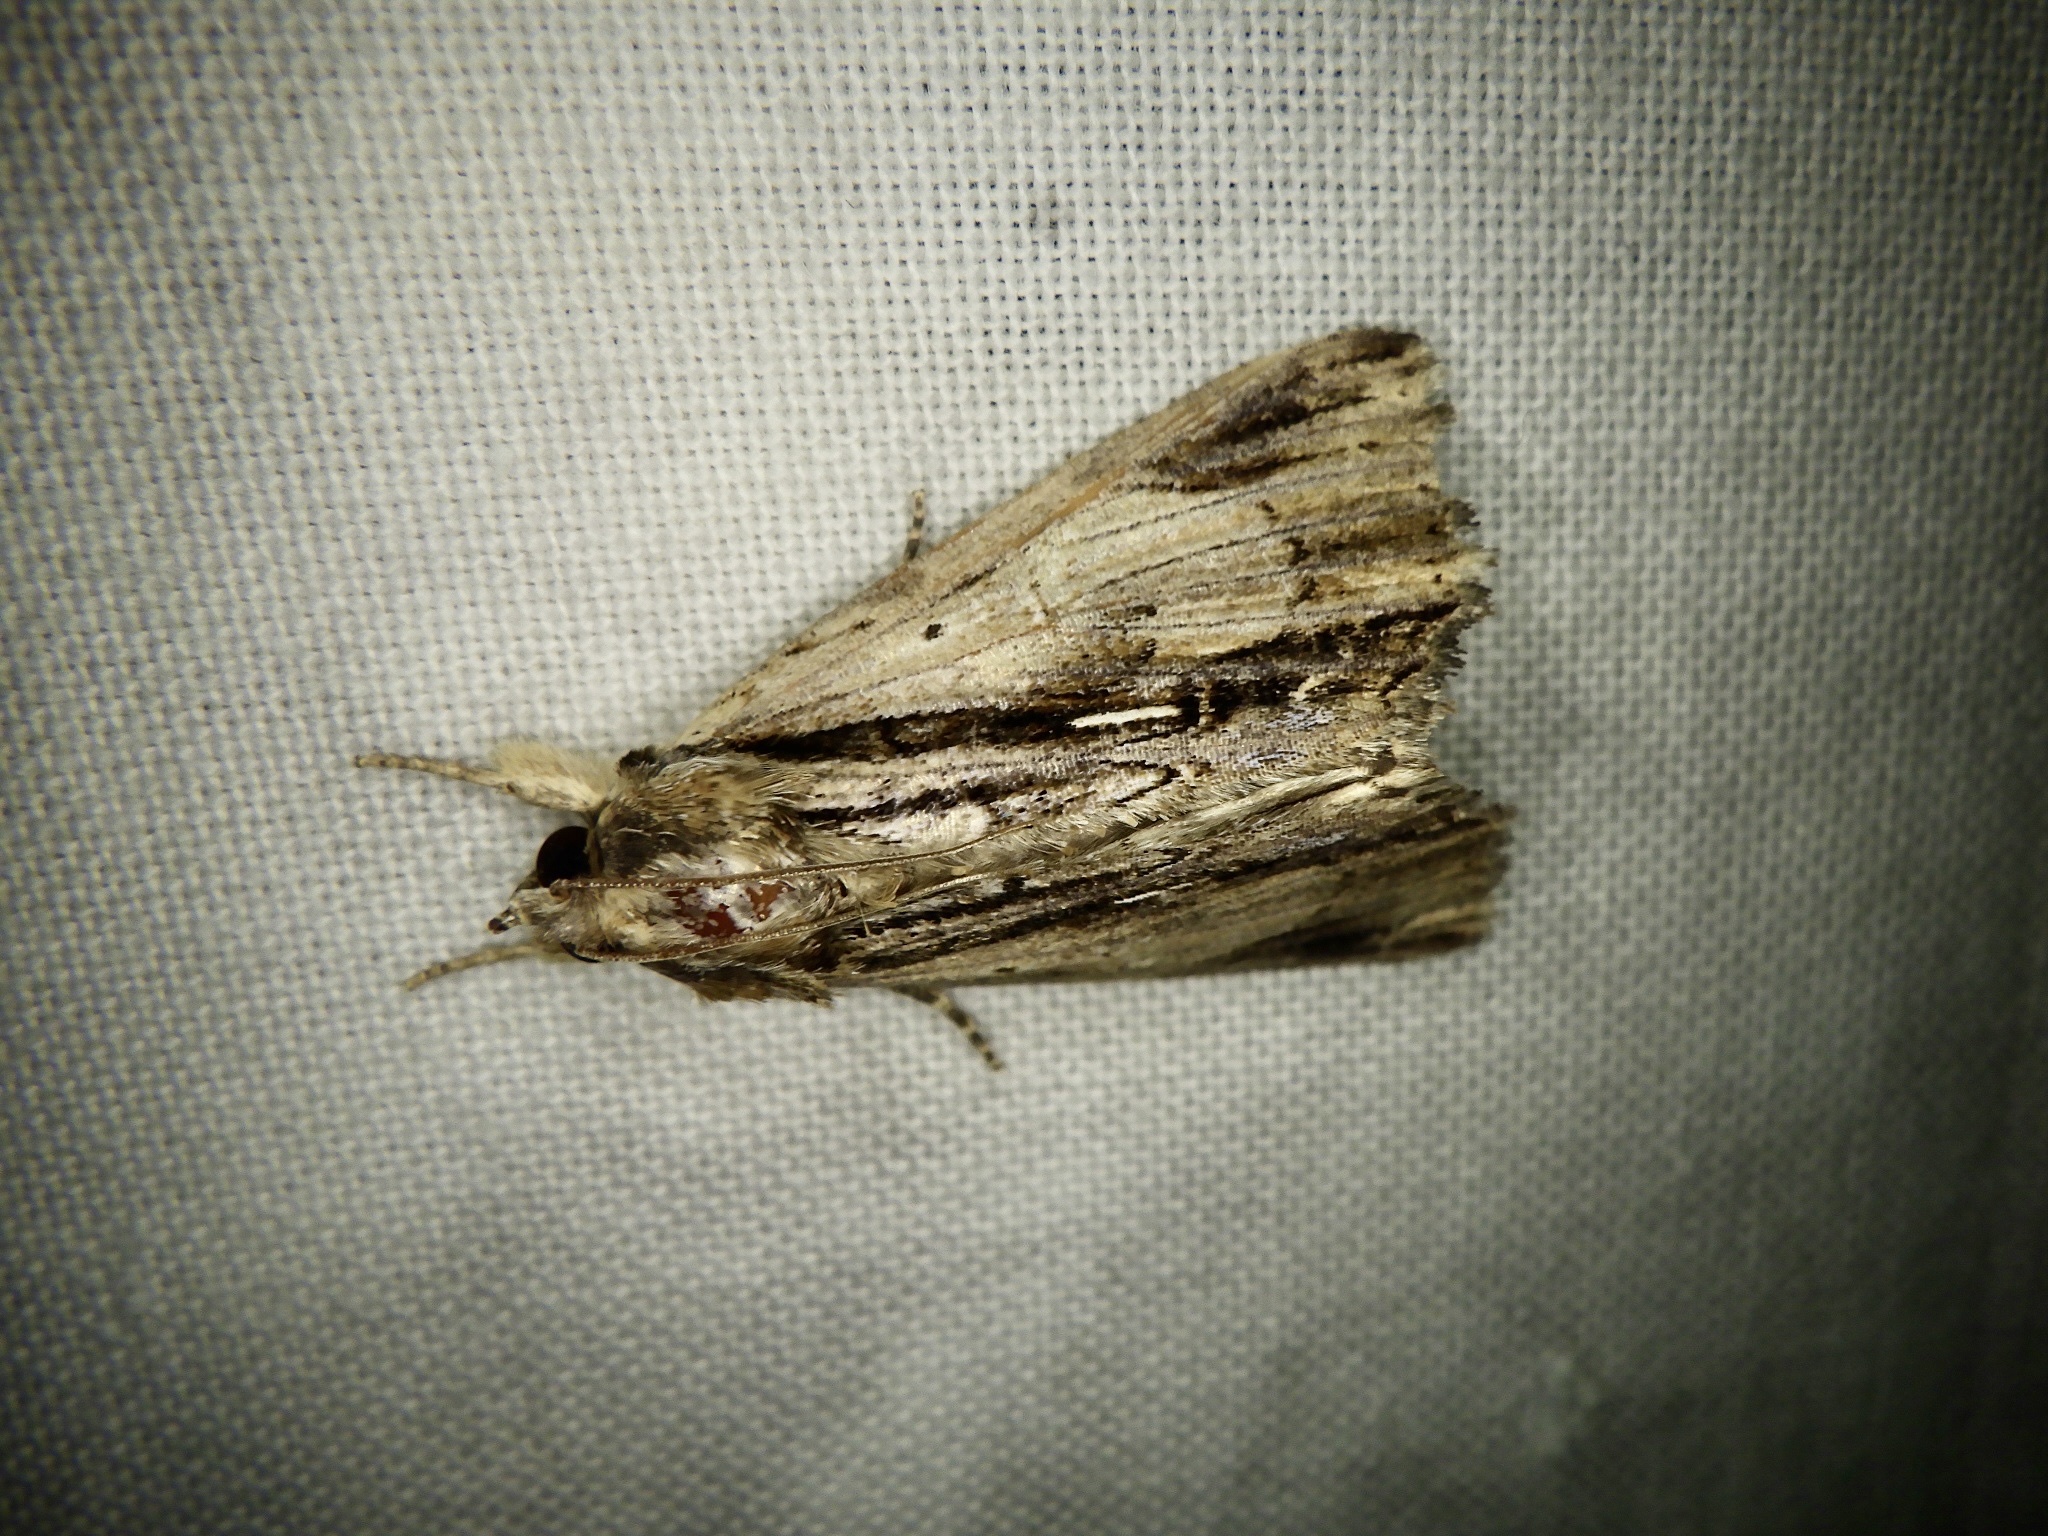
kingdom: Animalia
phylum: Arthropoda
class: Insecta
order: Lepidoptera
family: Erebidae
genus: Ercheia
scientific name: Ercheia niveostrigata
